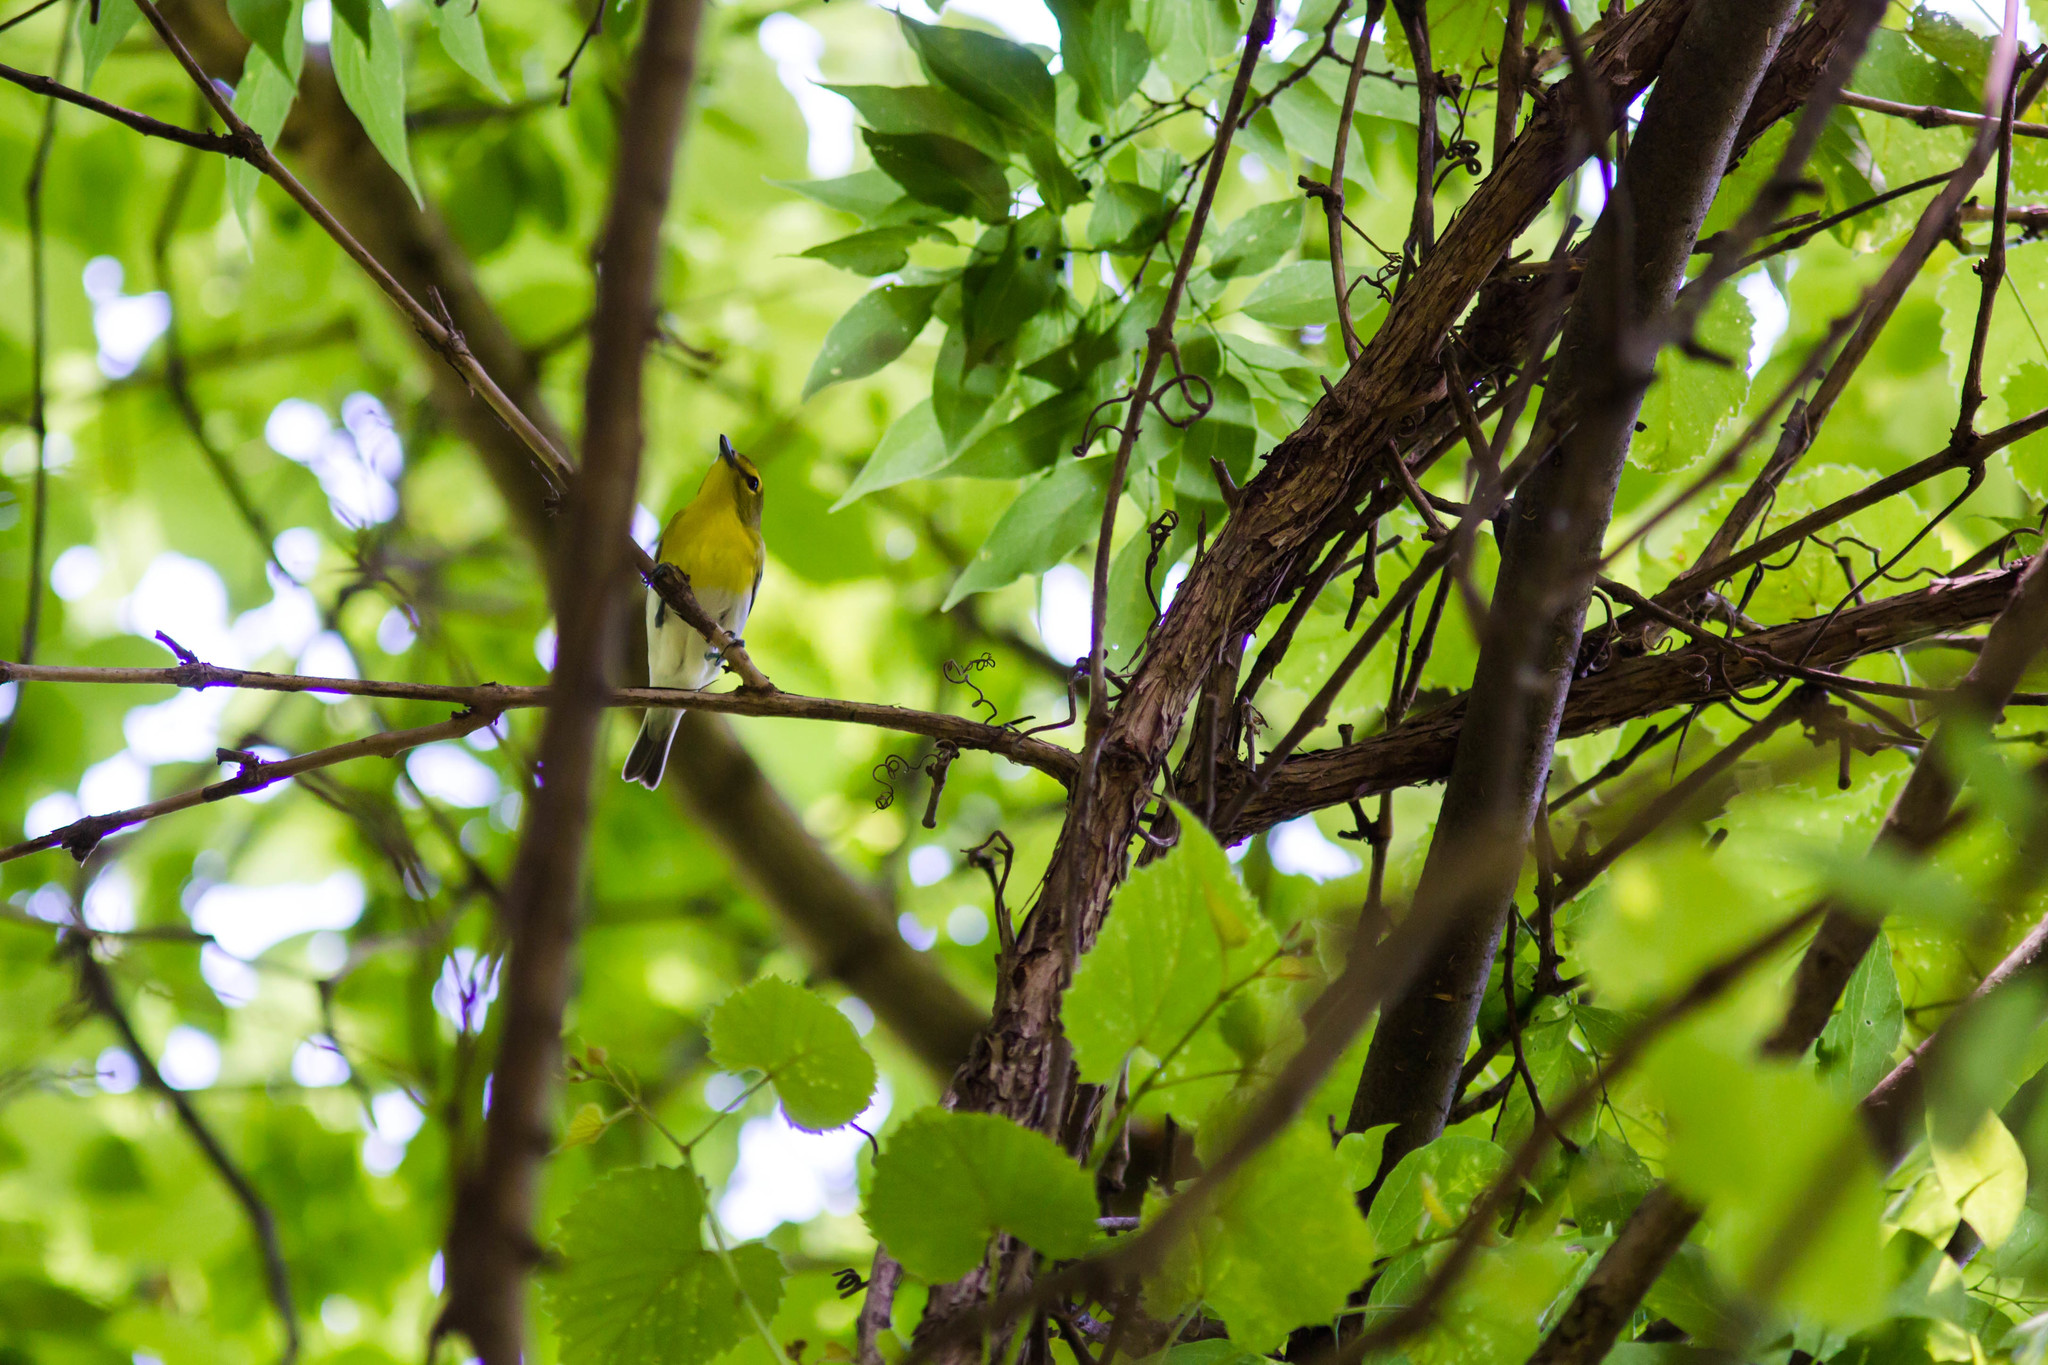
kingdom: Animalia
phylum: Chordata
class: Aves
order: Passeriformes
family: Vireonidae
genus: Vireo
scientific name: Vireo flavifrons
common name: Yellow-throated vireo
